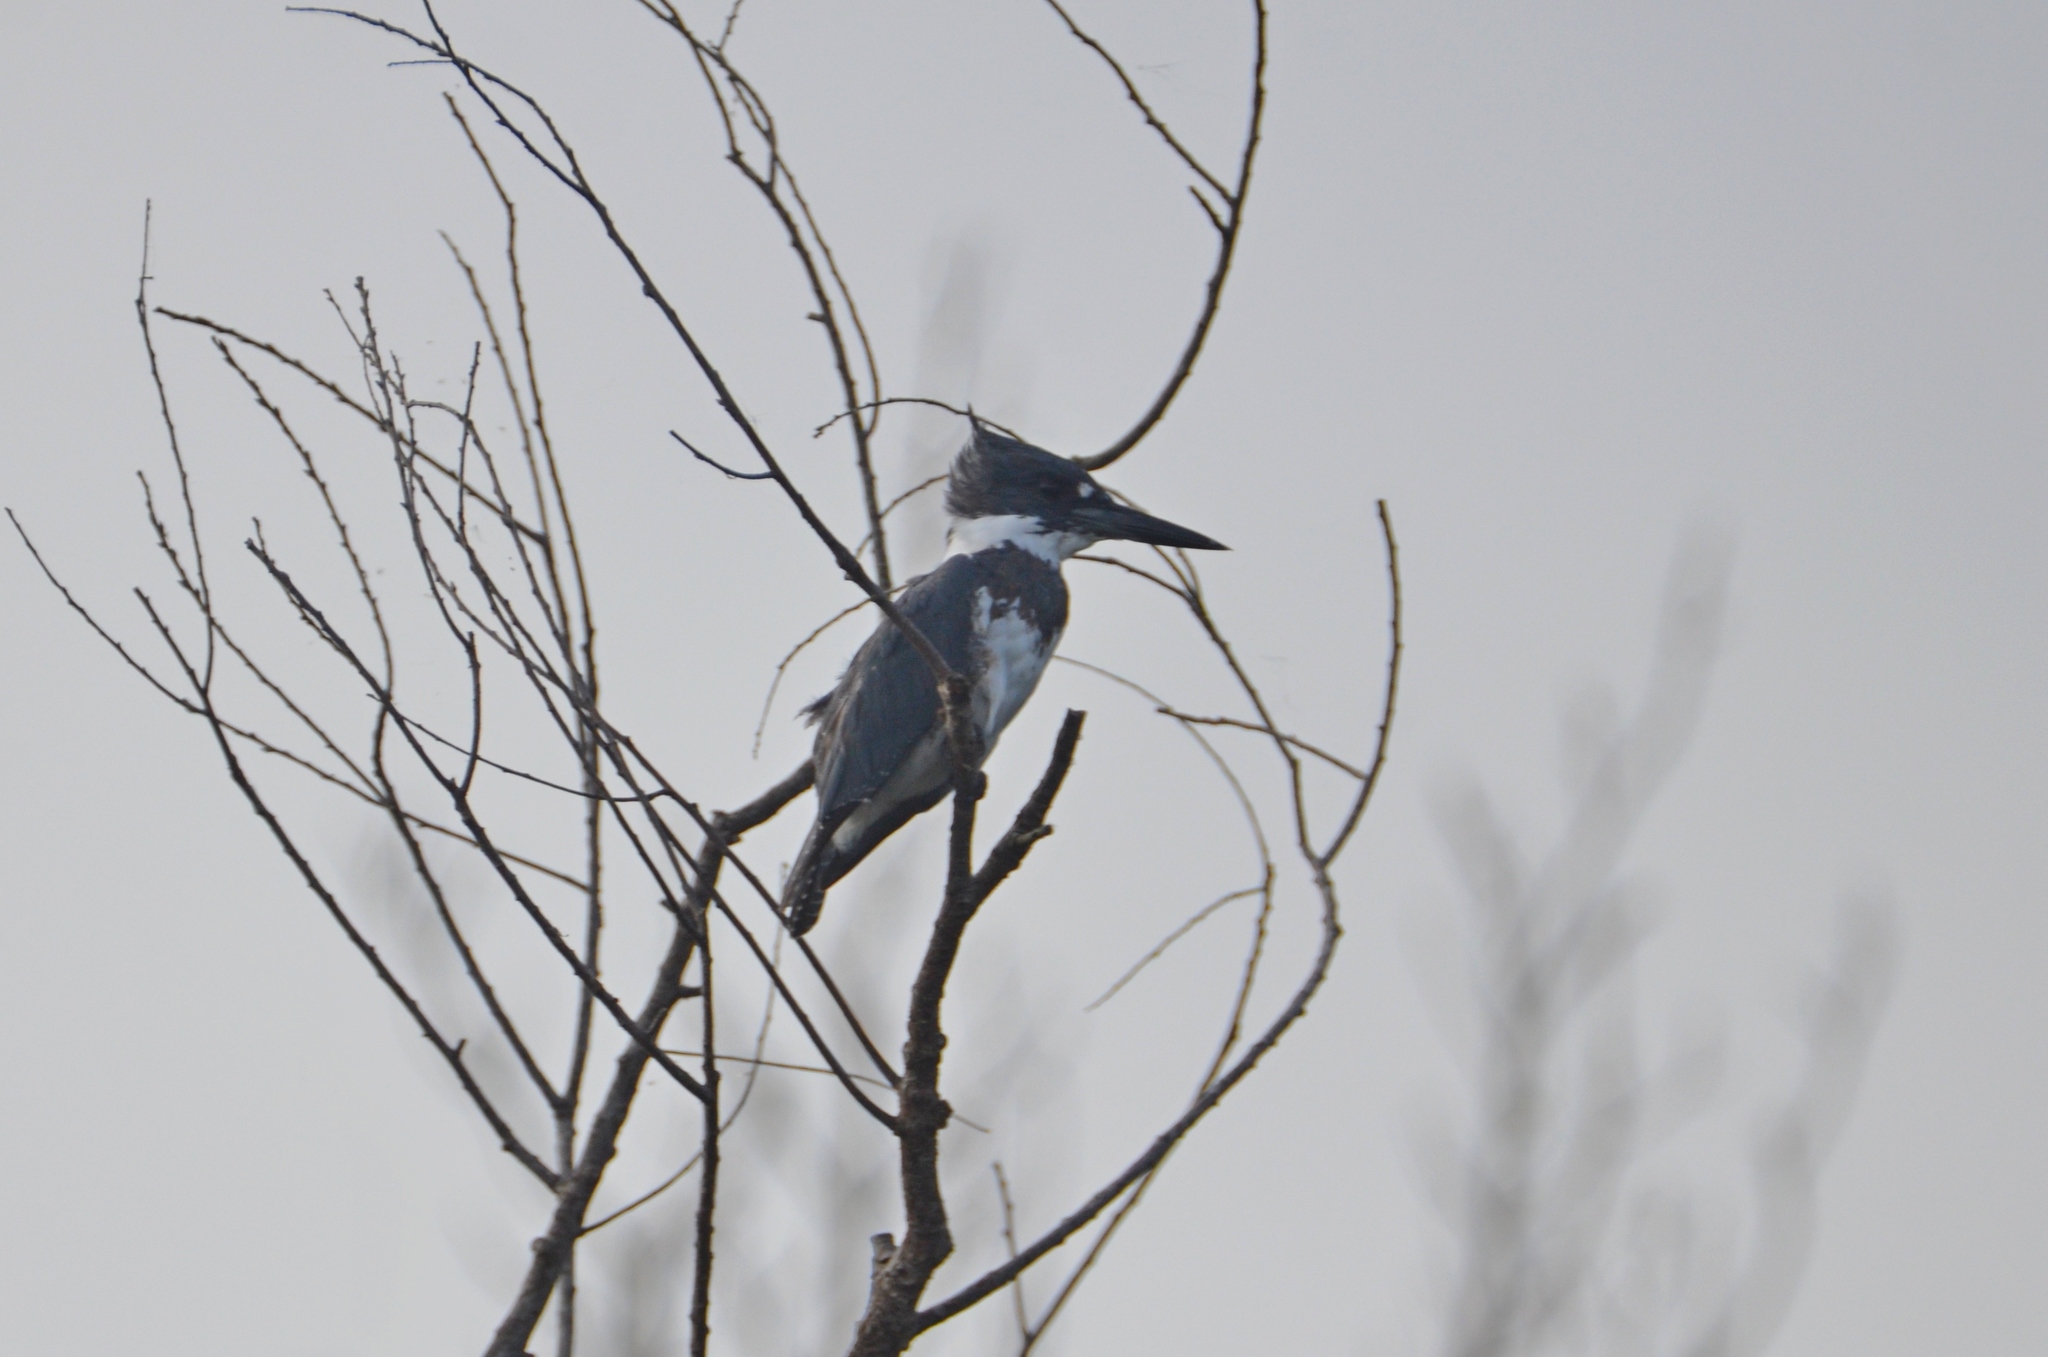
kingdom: Animalia
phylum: Chordata
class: Aves
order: Coraciiformes
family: Alcedinidae
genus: Megaceryle
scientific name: Megaceryle alcyon
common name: Belted kingfisher
